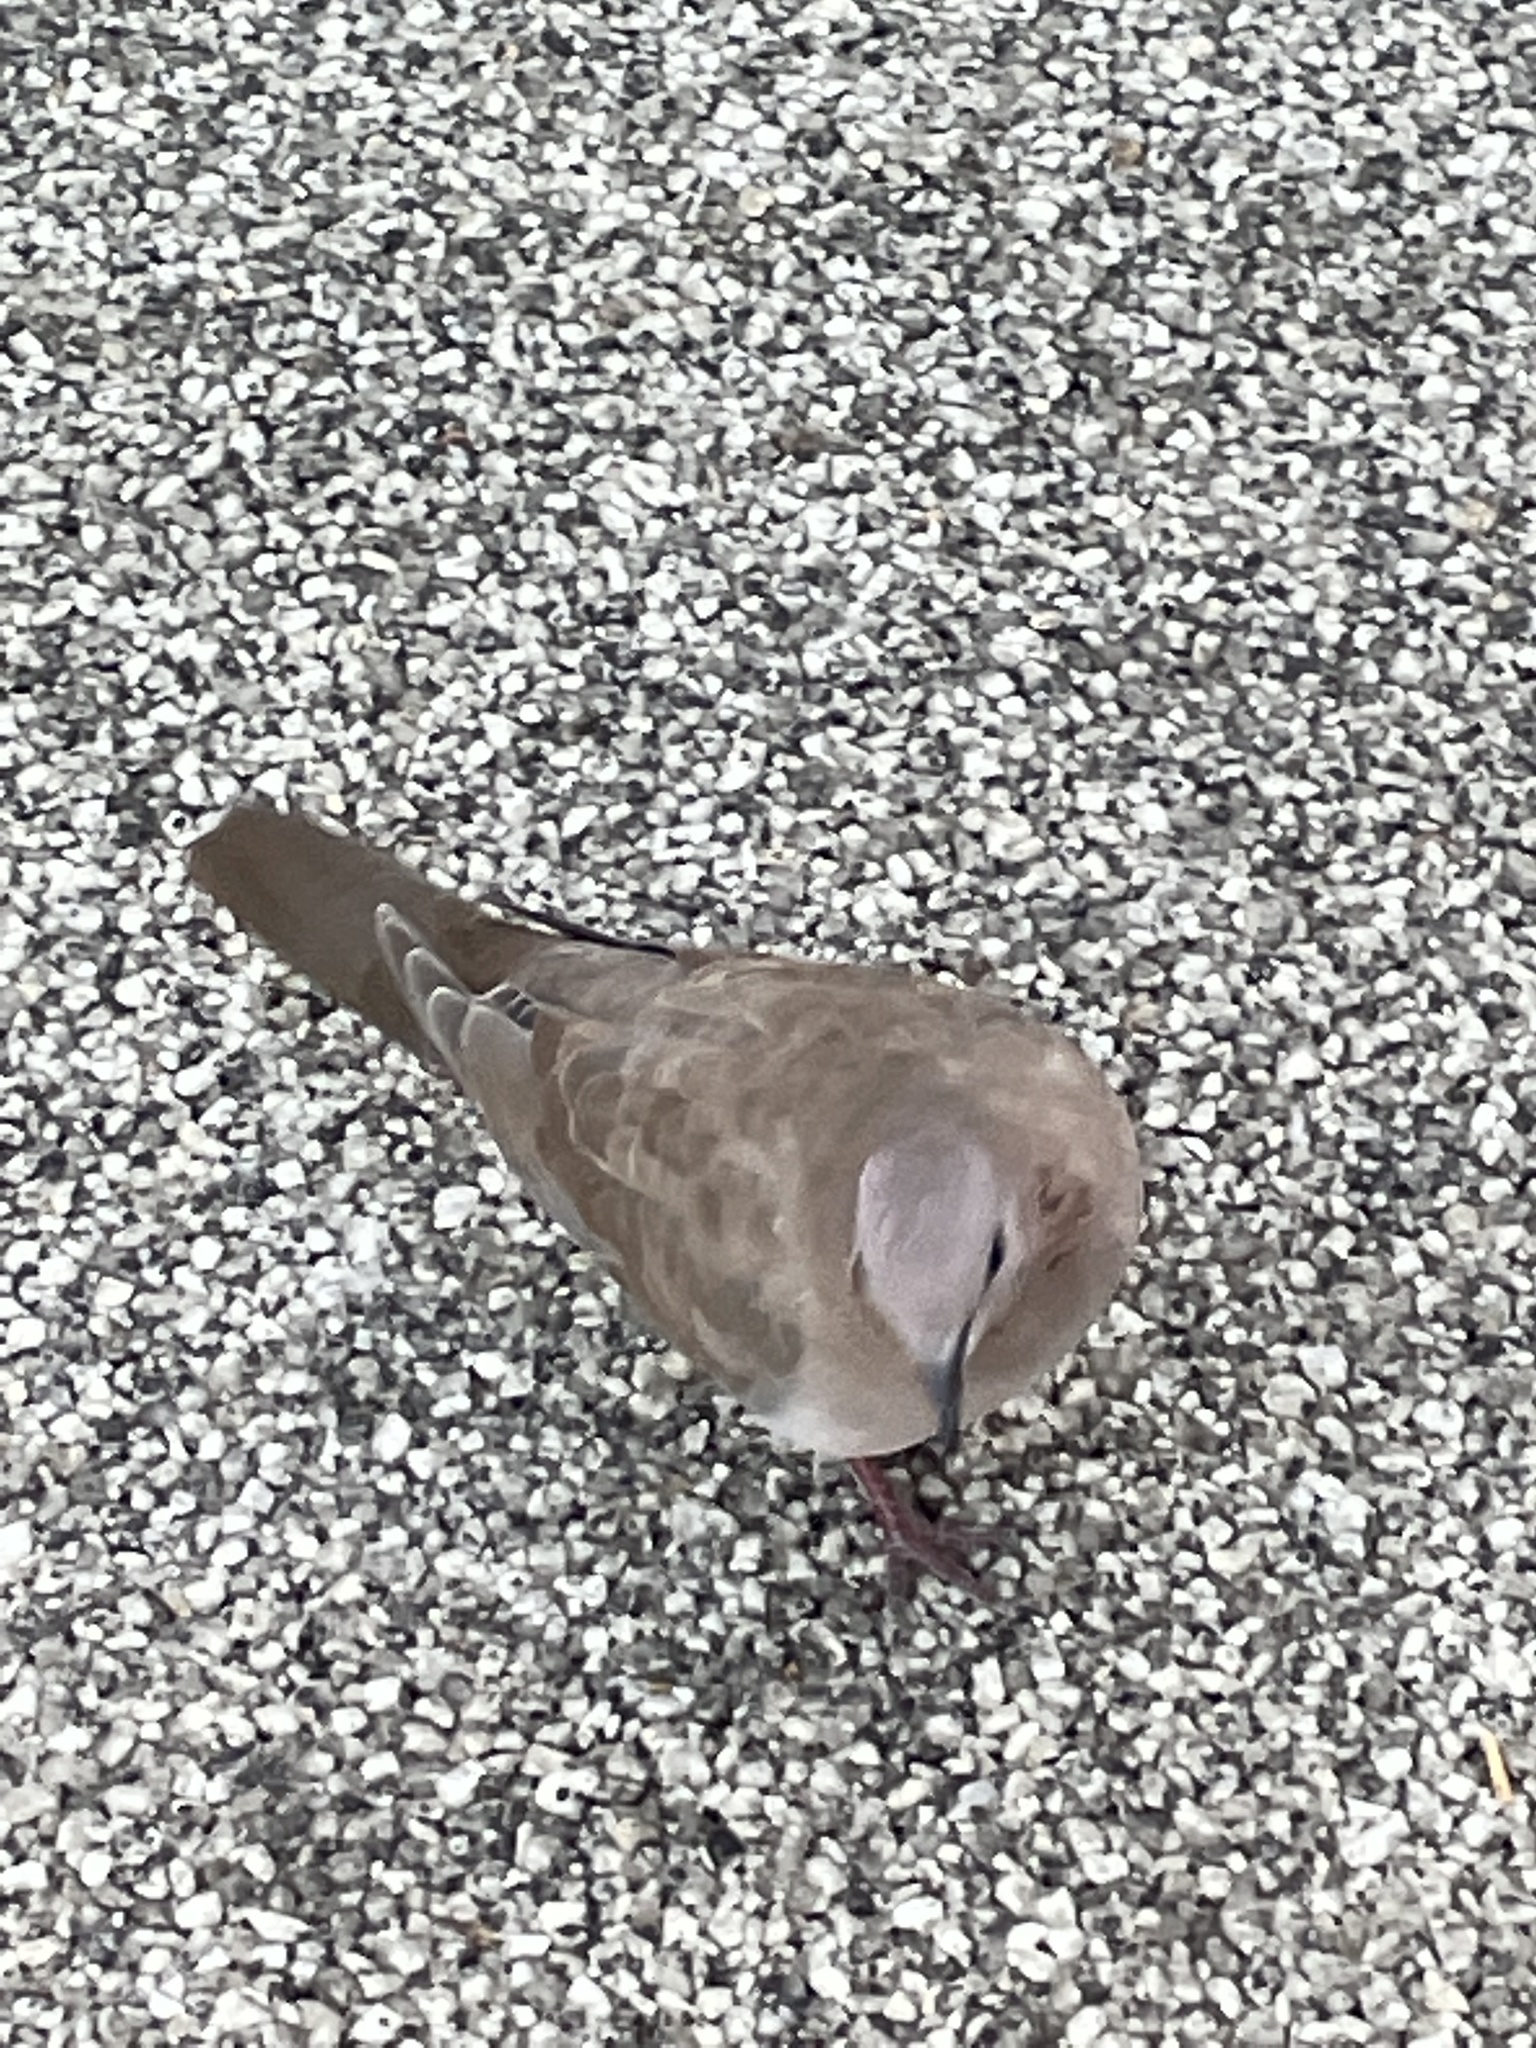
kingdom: Animalia
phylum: Chordata
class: Aves
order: Columbiformes
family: Columbidae
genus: Spilopelia
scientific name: Spilopelia senegalensis
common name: Laughing dove
